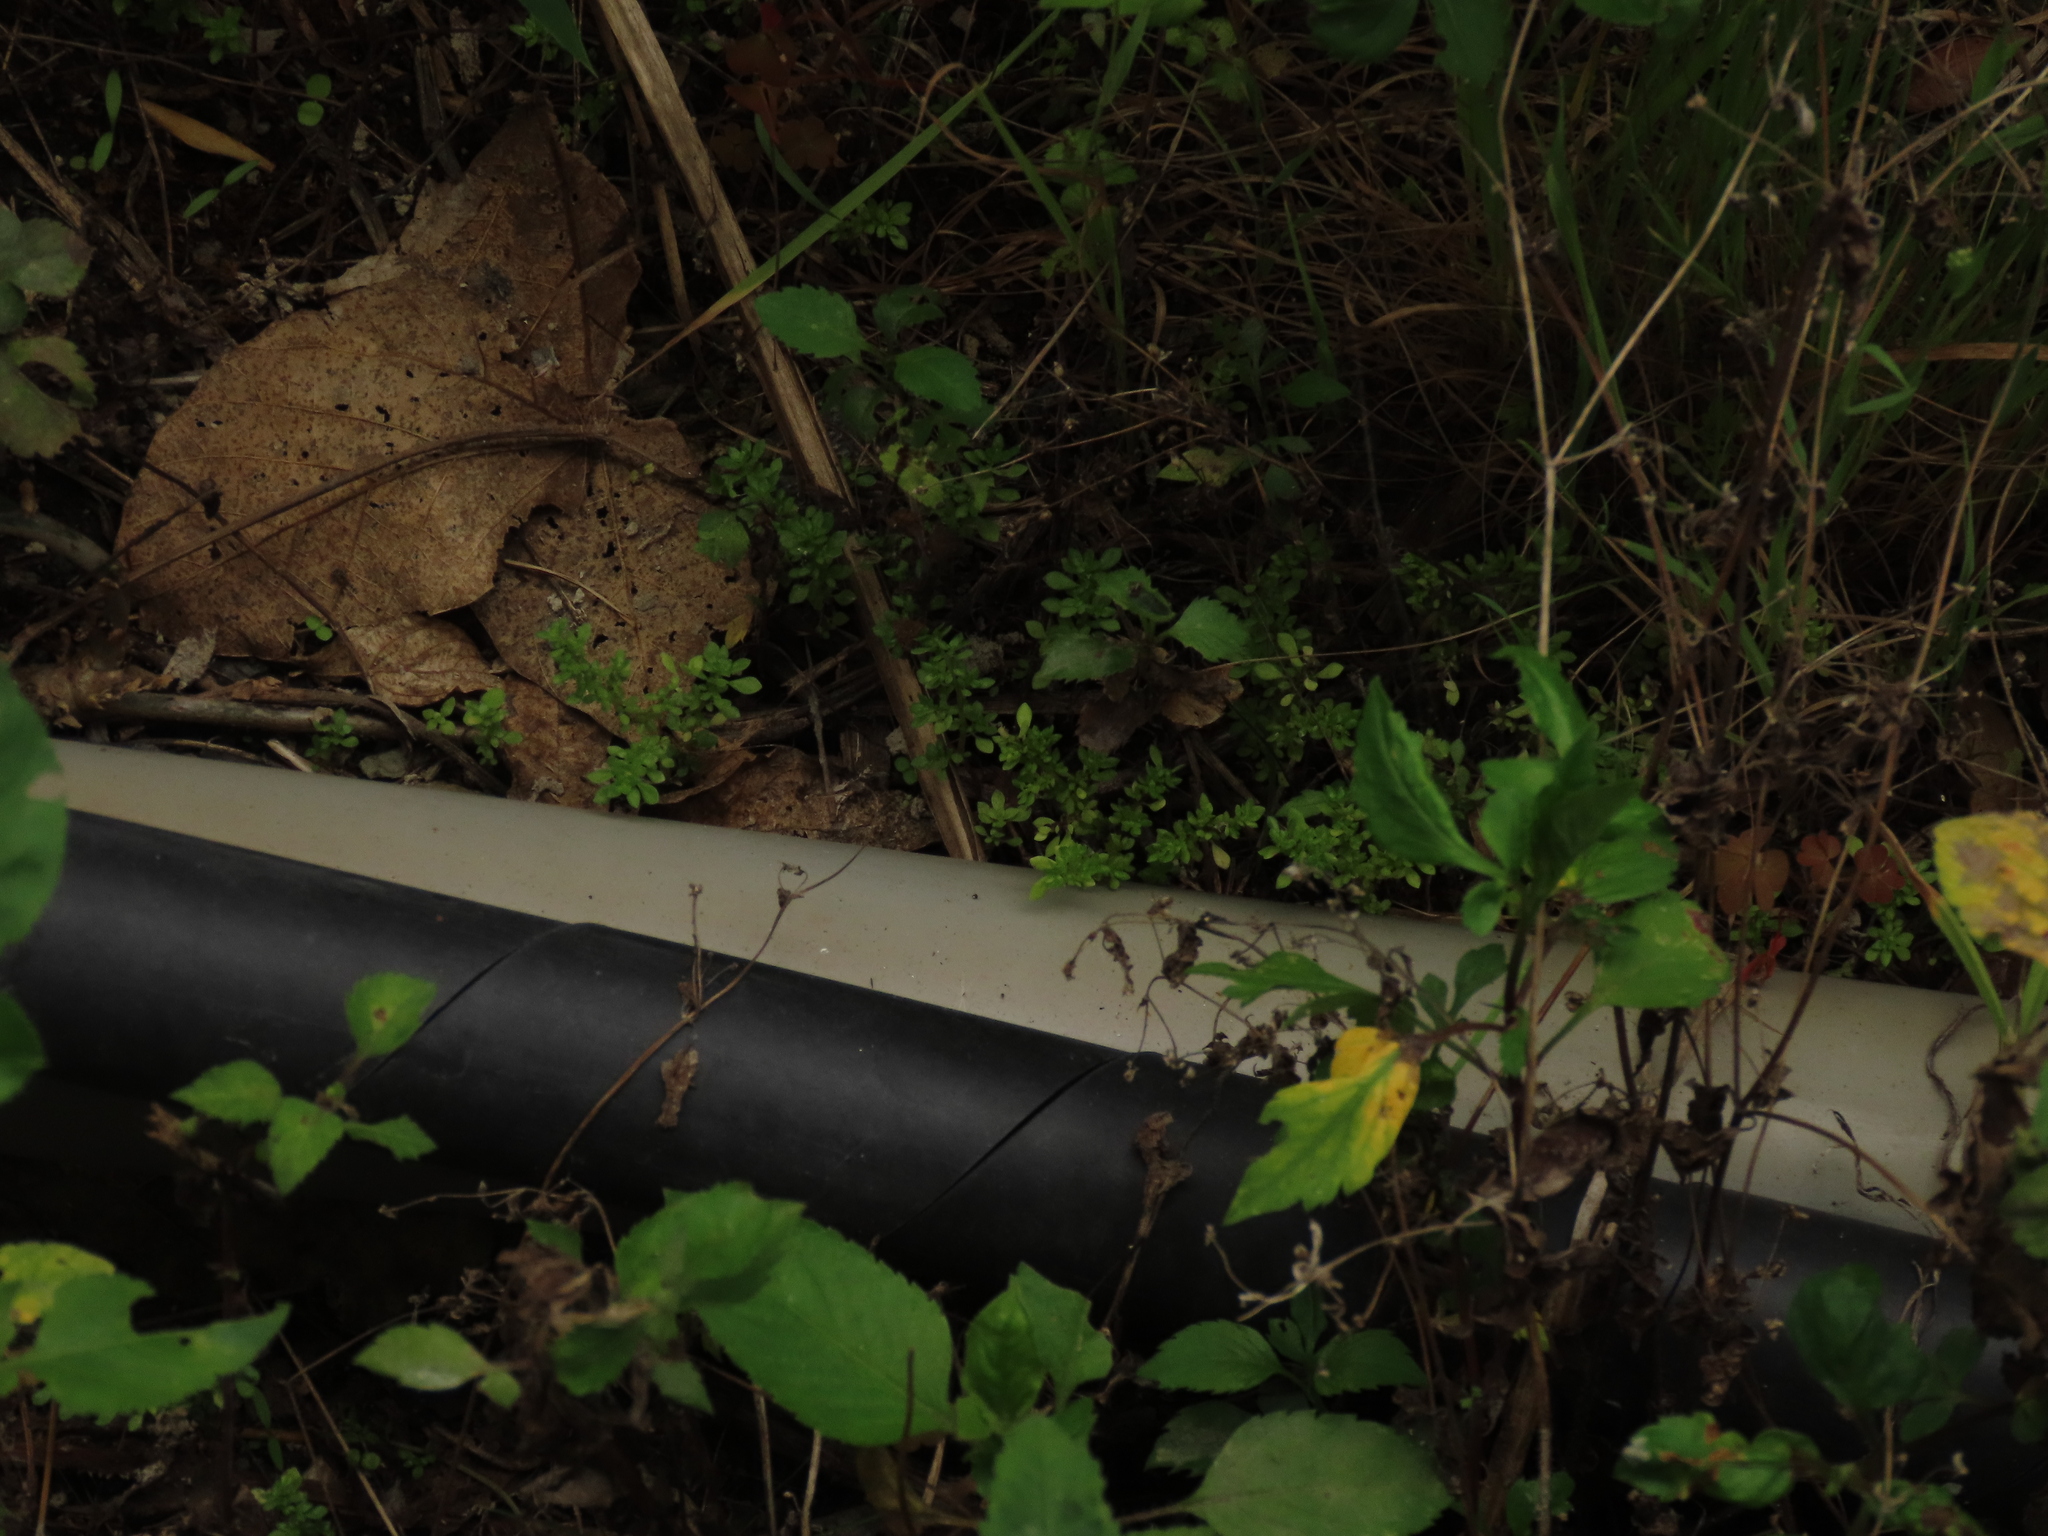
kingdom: Plantae
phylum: Tracheophyta
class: Magnoliopsida
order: Rosales
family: Urticaceae
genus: Pilea
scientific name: Pilea microphylla
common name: Artillery-plant
